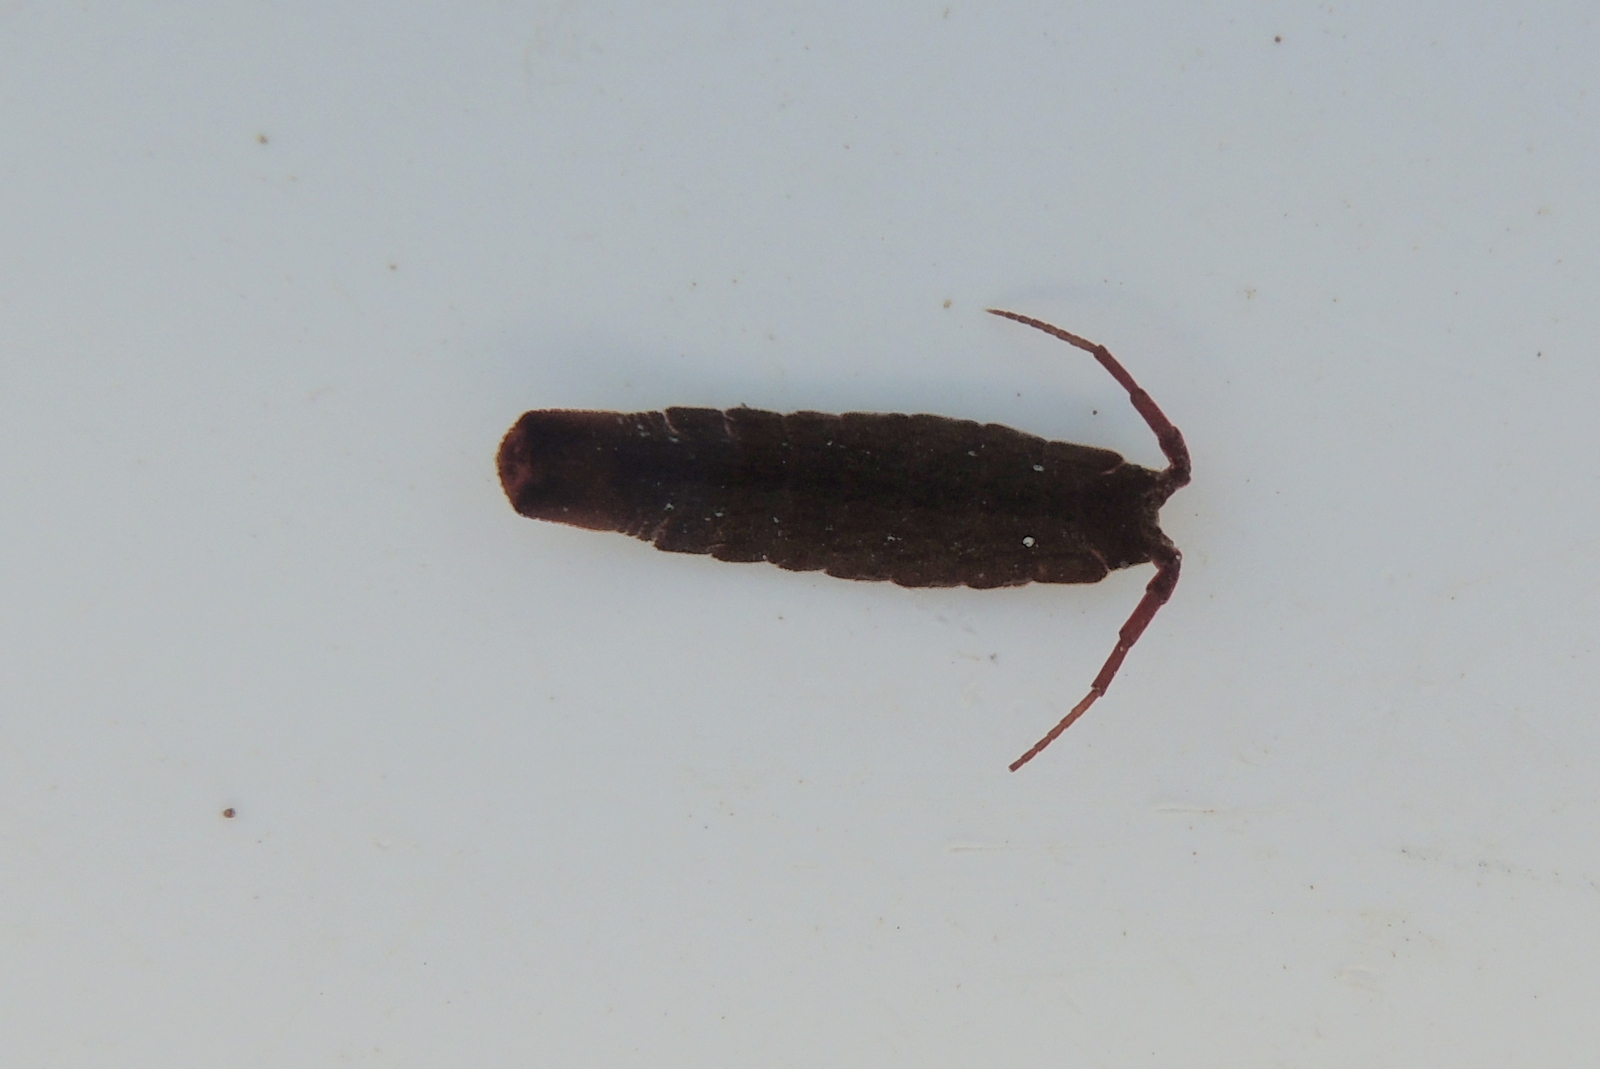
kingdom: Animalia
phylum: Arthropoda
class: Malacostraca
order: Isopoda
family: Idoteidae
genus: Idotea
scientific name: Idotea urotoma
